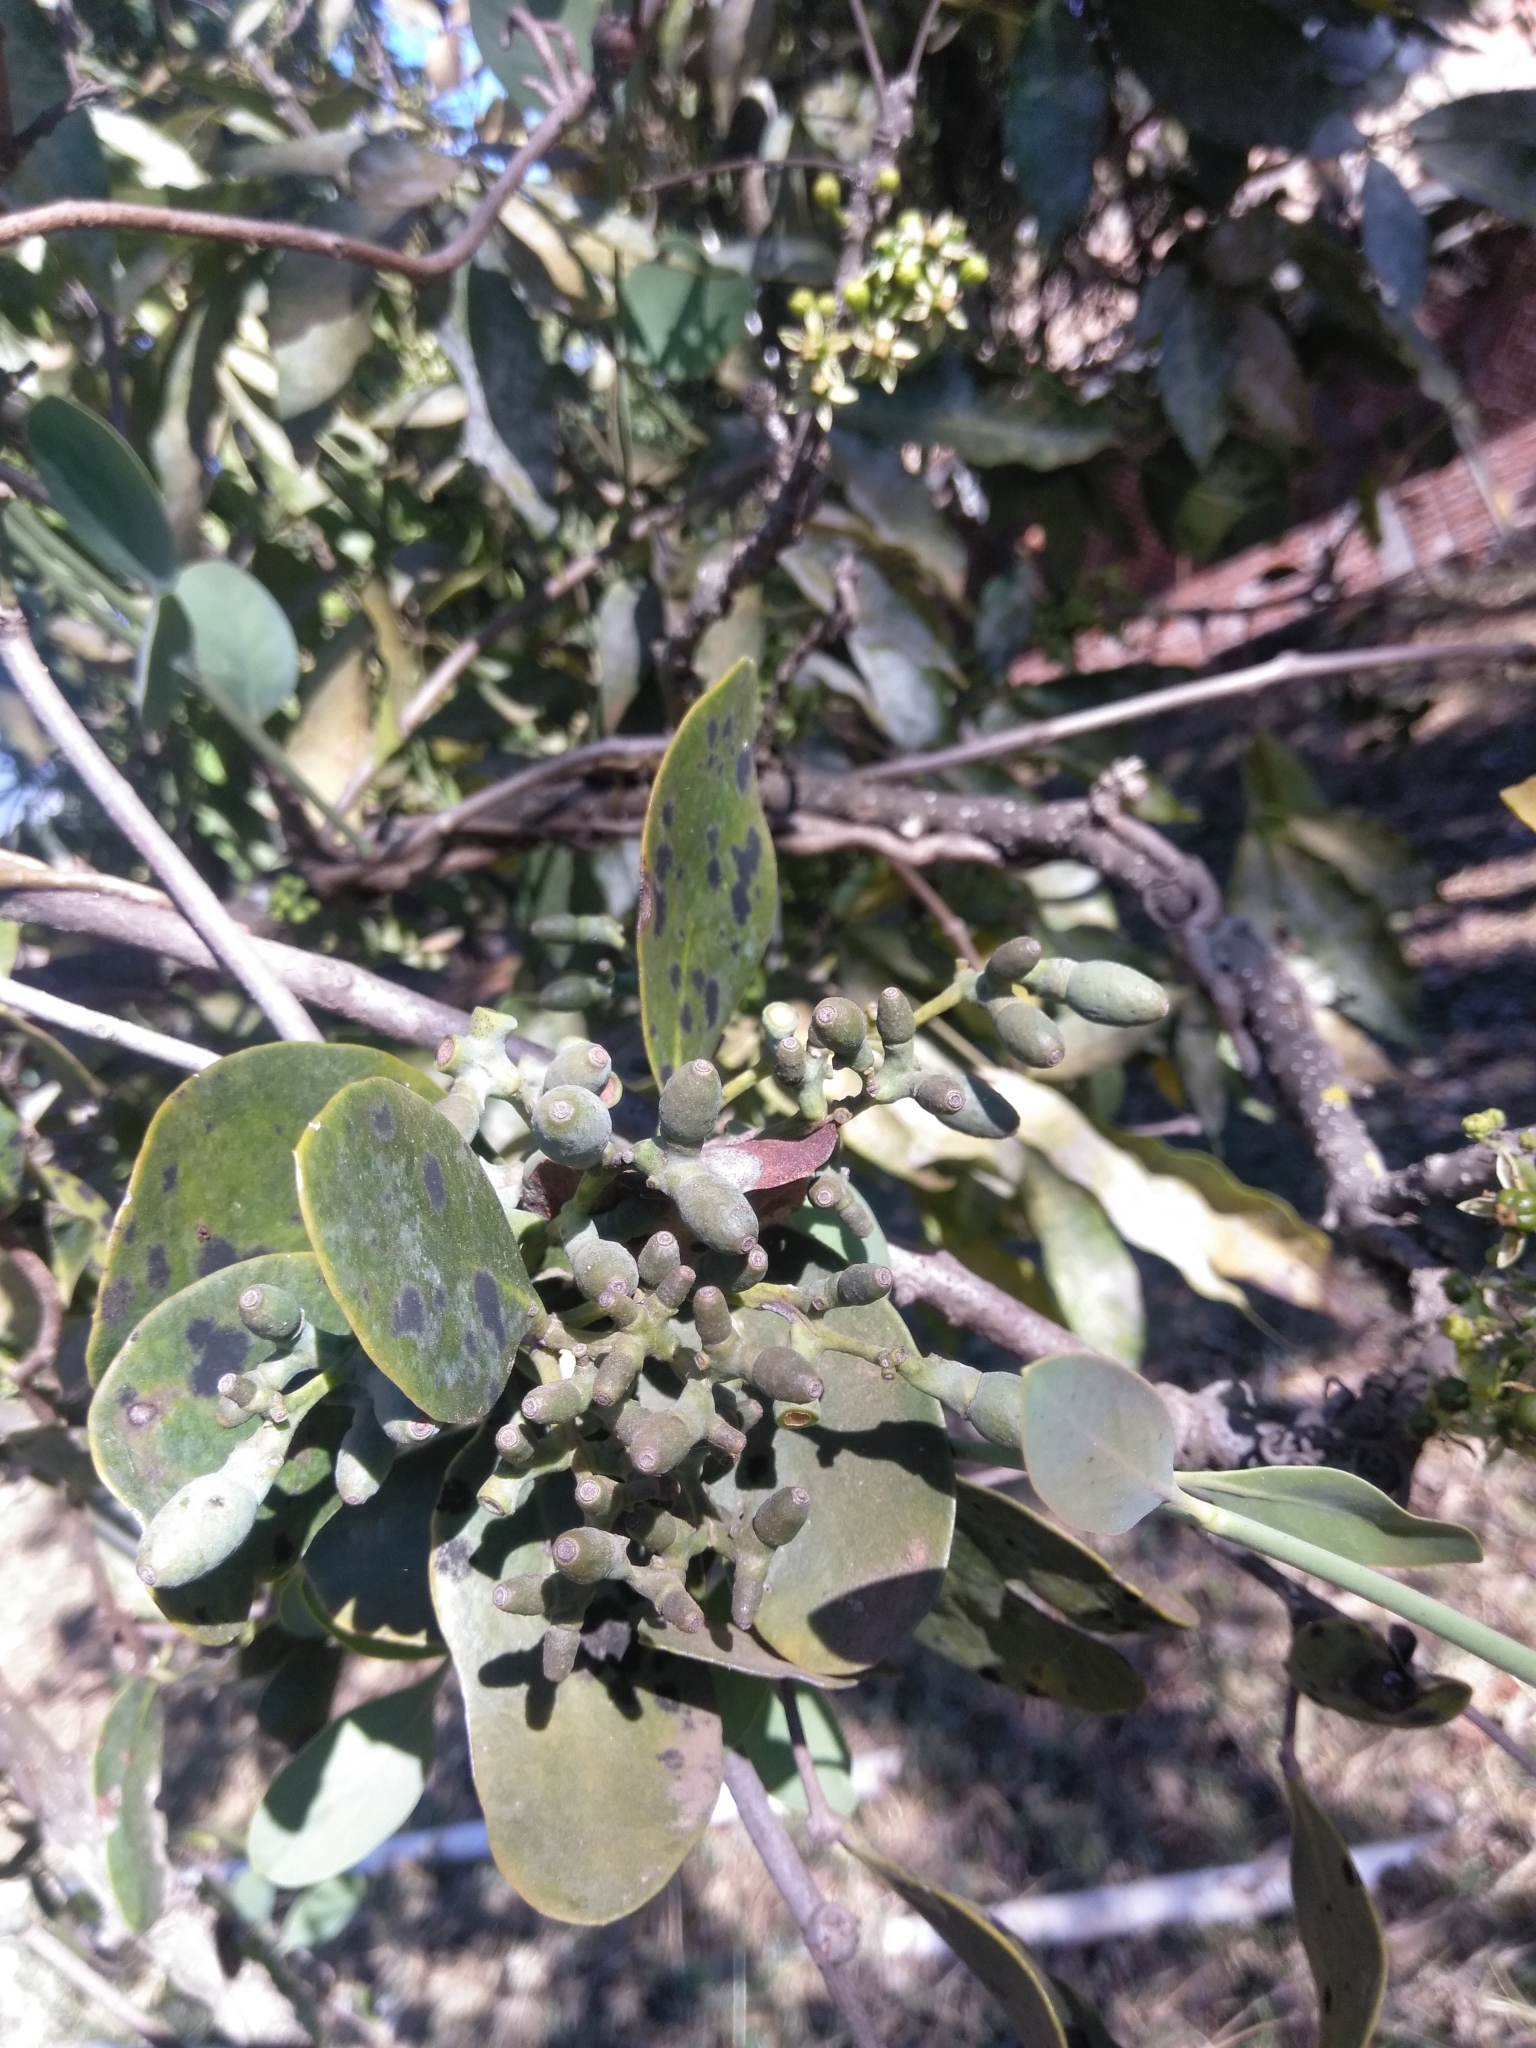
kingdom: Plantae
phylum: Tracheophyta
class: Magnoliopsida
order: Santalales
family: Loranthaceae
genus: Struthanthus
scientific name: Struthanthus interruptus
